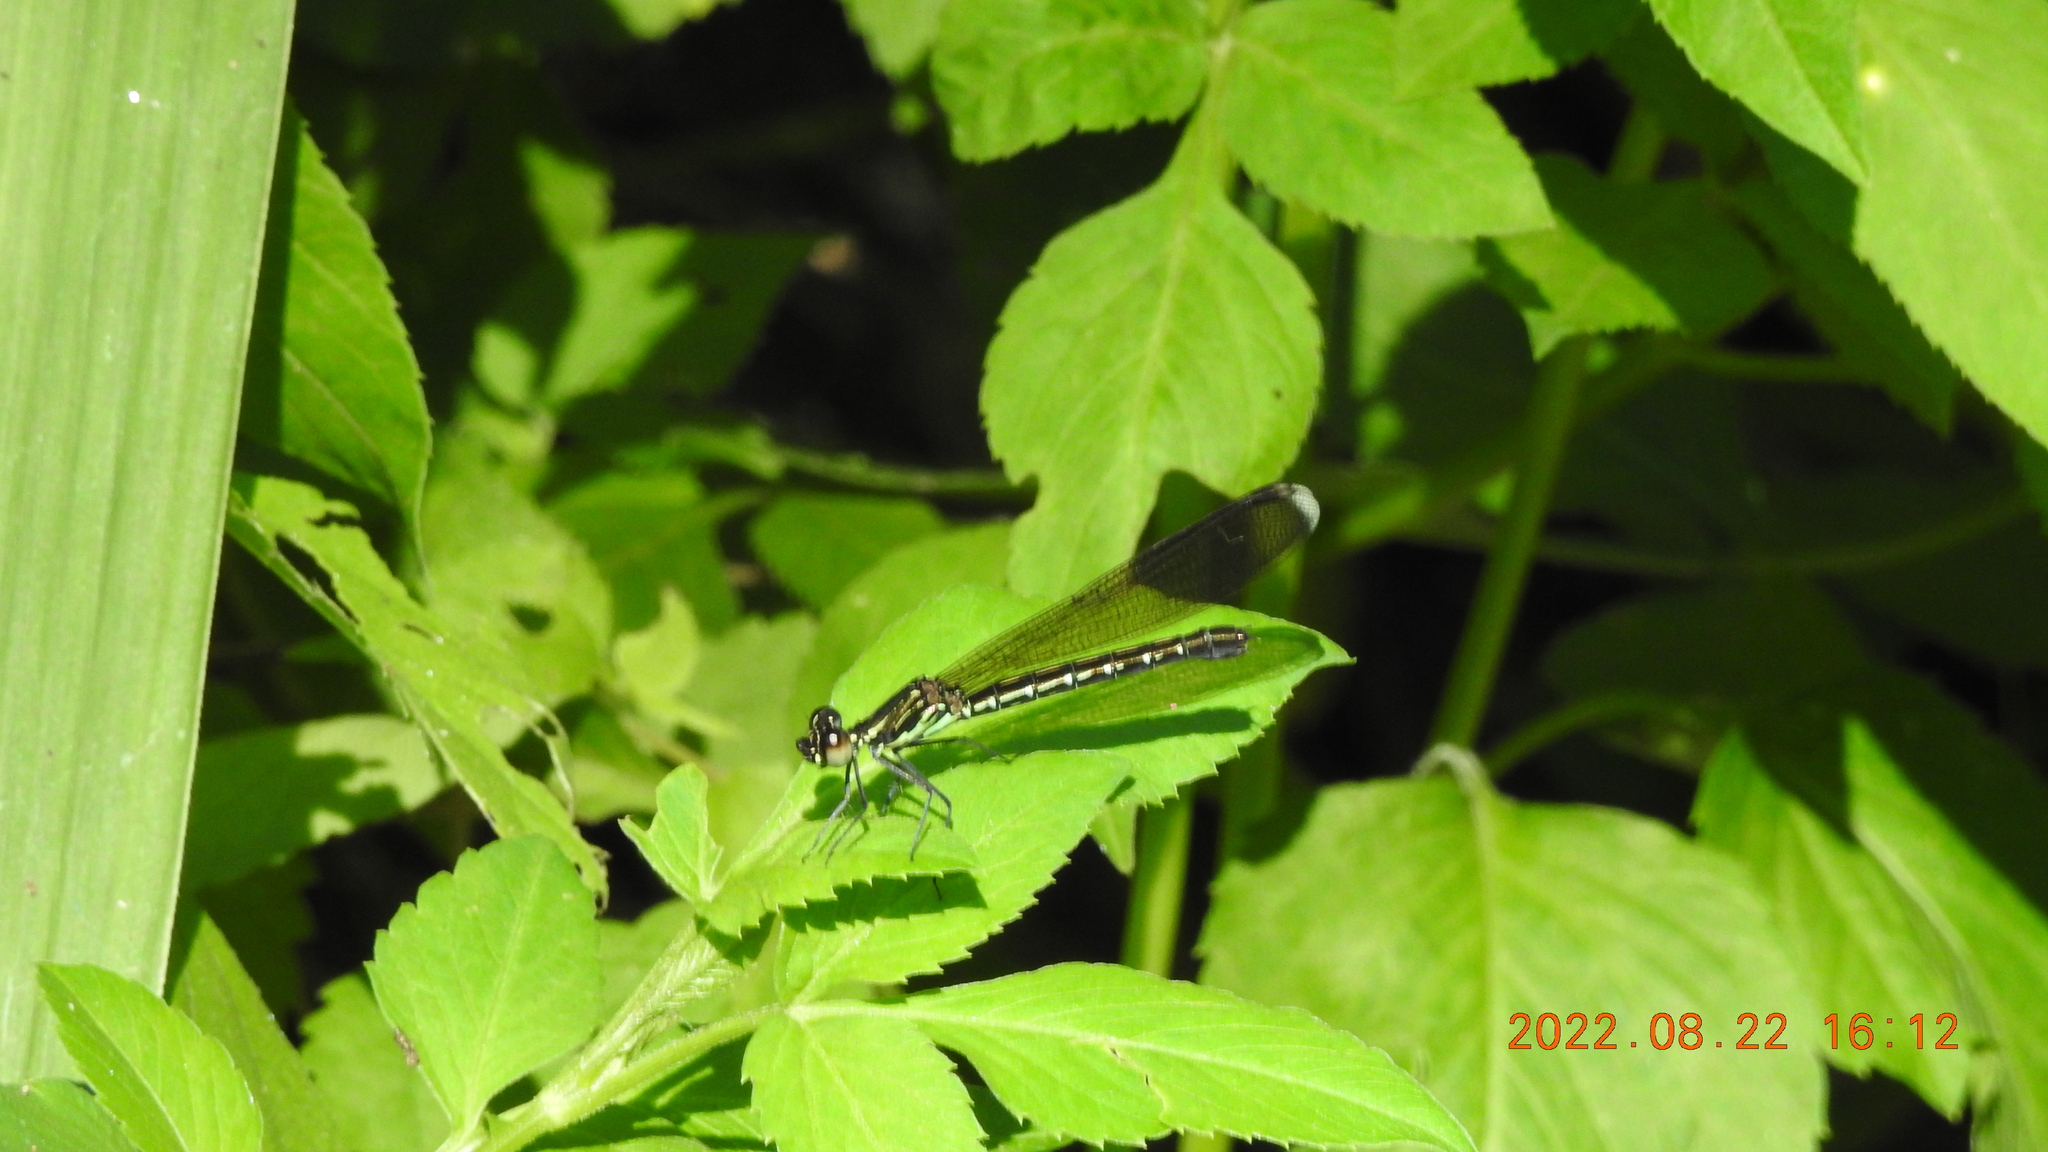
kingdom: Animalia
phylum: Arthropoda
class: Insecta
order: Odonata
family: Chlorocyphidae
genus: Heliocypha
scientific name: Heliocypha perforata
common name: Common blue jewel
